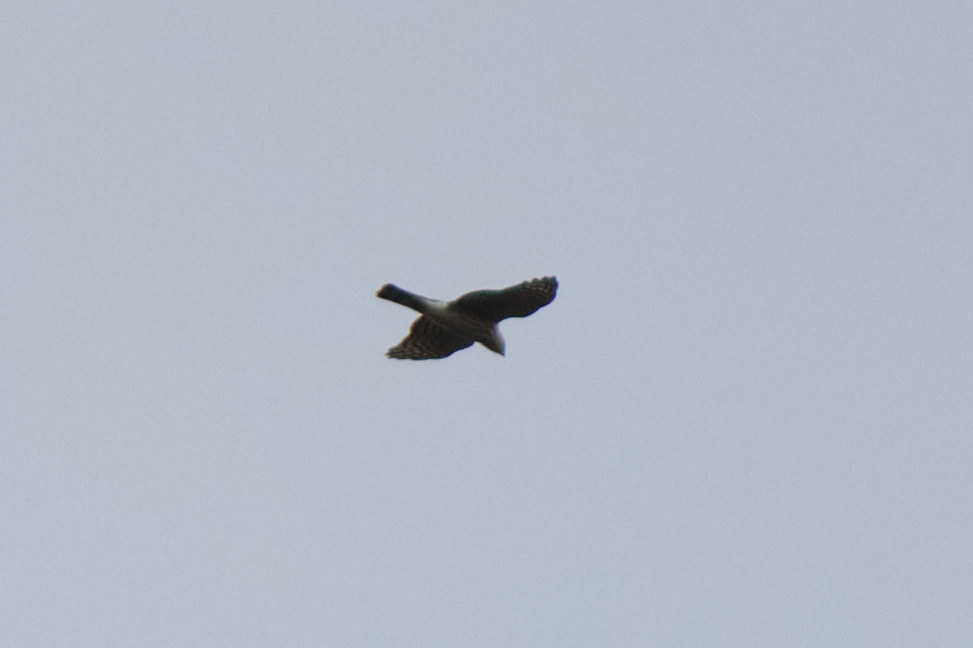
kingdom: Animalia
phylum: Chordata
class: Aves
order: Accipitriformes
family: Accipitridae
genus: Accipiter
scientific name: Accipiter striatus
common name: Sharp-shinned hawk
